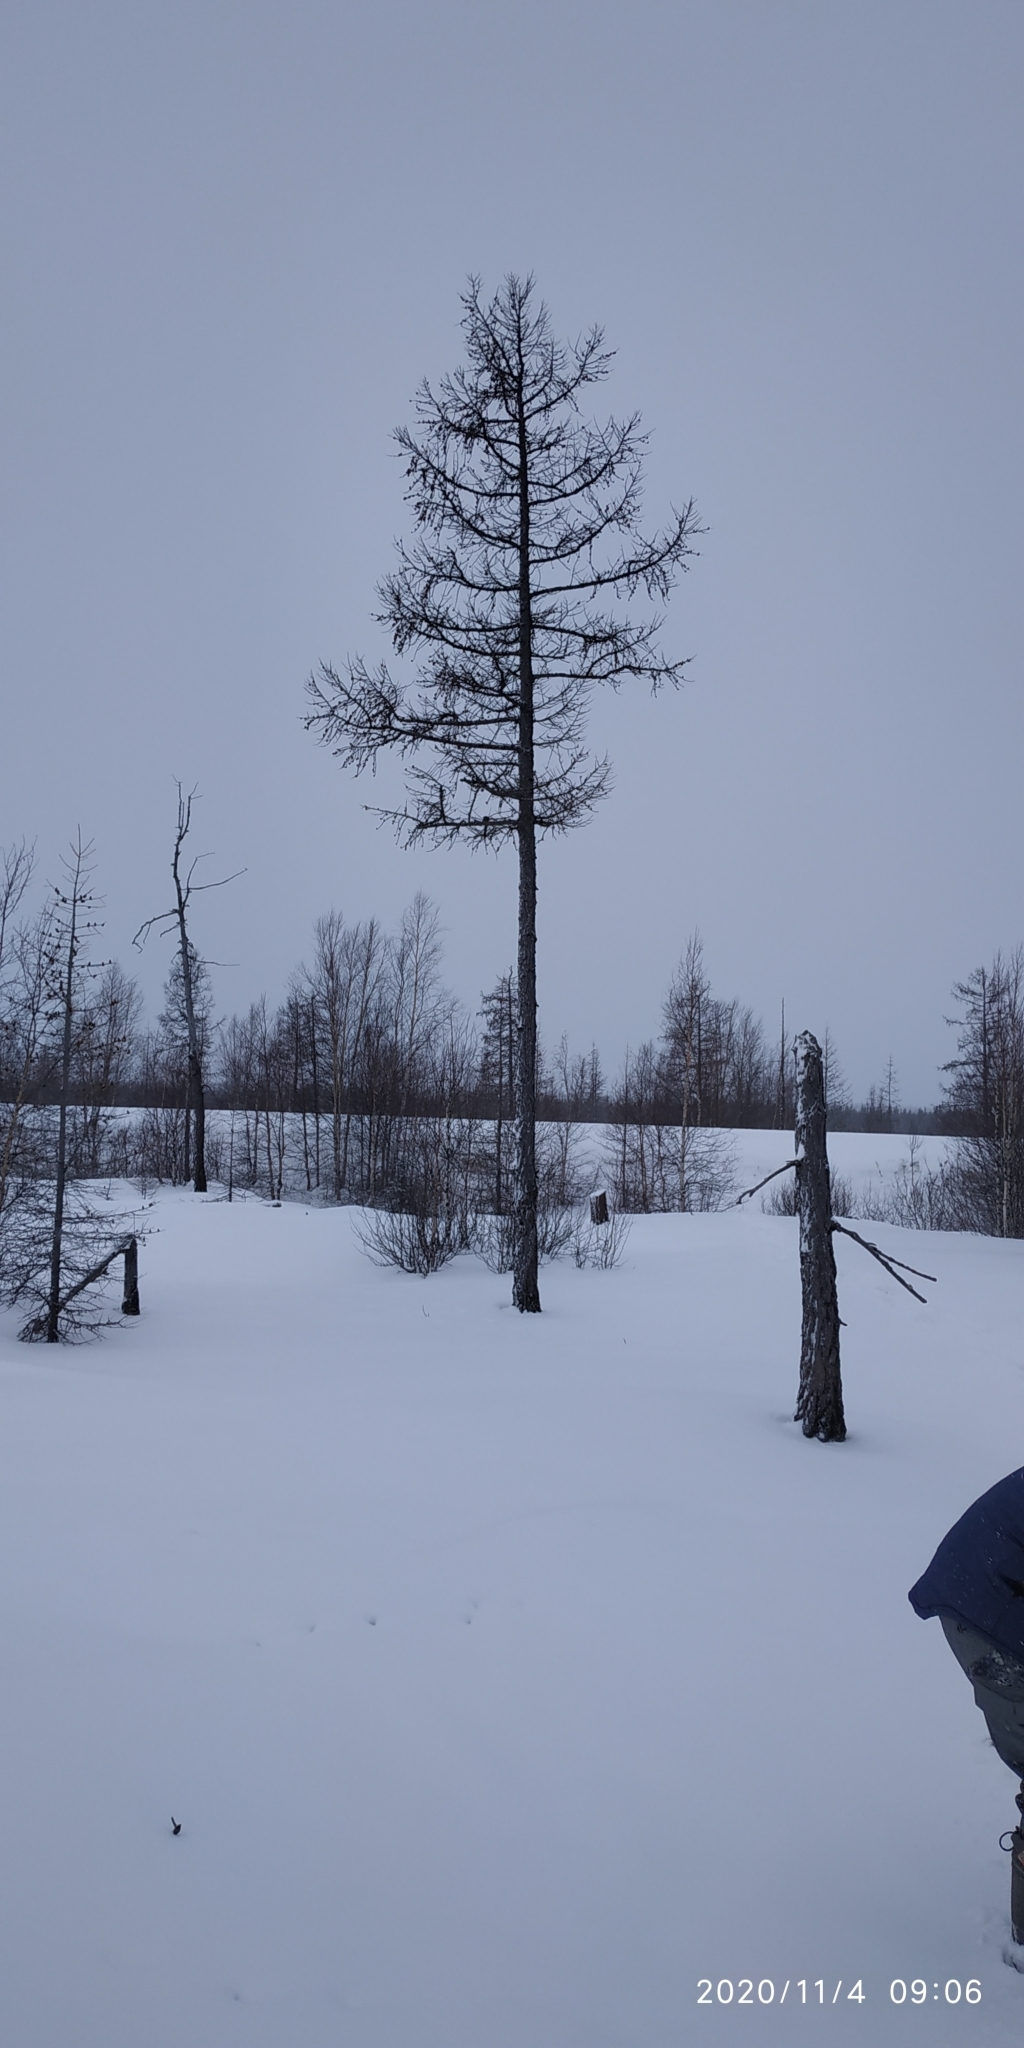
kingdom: Plantae
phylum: Tracheophyta
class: Pinopsida
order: Pinales
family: Pinaceae
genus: Larix
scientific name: Larix sibirica
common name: Siberian larch
